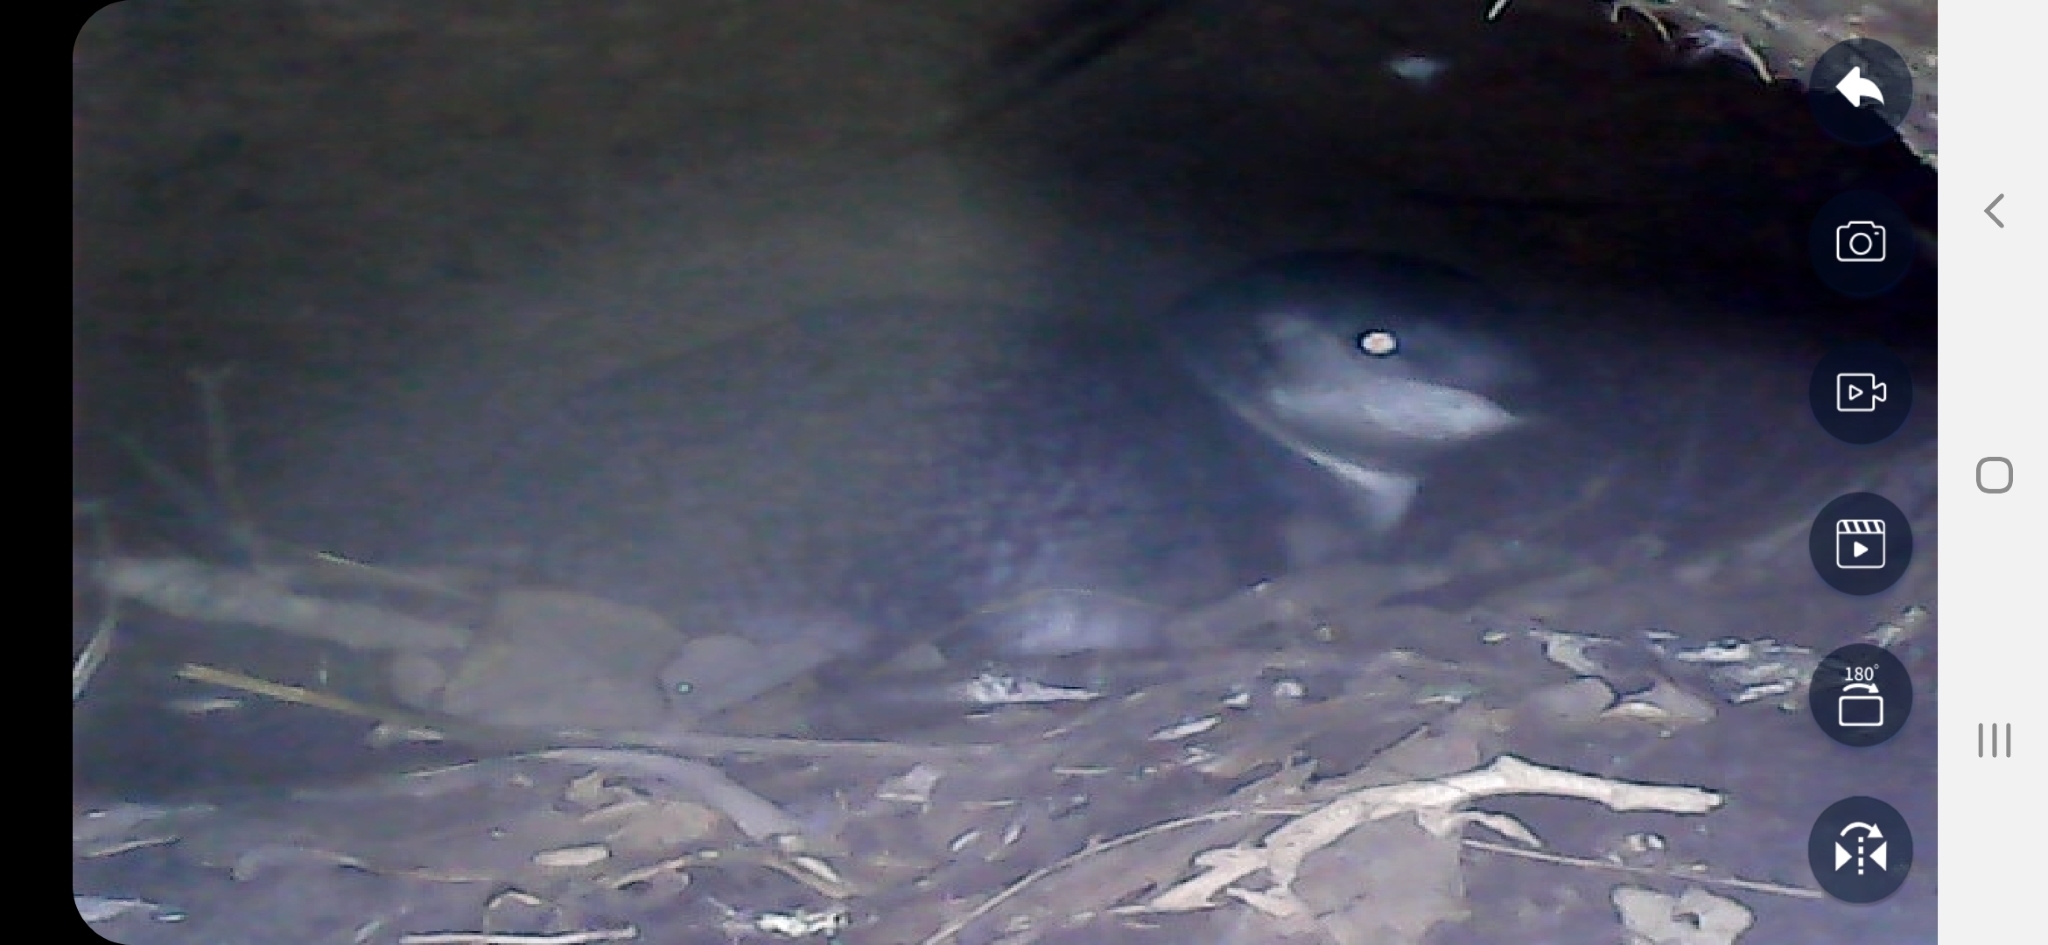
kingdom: Animalia
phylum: Chordata
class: Aves
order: Sphenisciformes
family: Spheniscidae
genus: Eudyptula
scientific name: Eudyptula minor
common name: Little penguin
